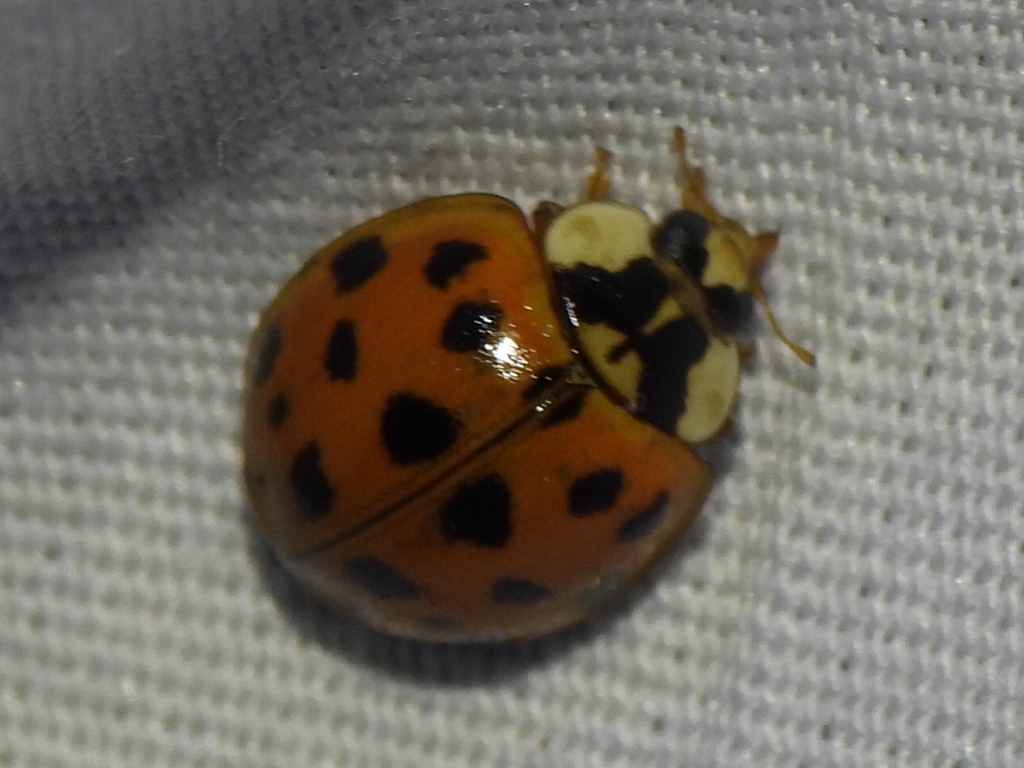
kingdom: Animalia
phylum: Arthropoda
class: Insecta
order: Coleoptera
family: Coccinellidae
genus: Harmonia
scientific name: Harmonia axyridis
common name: Harlequin ladybird
